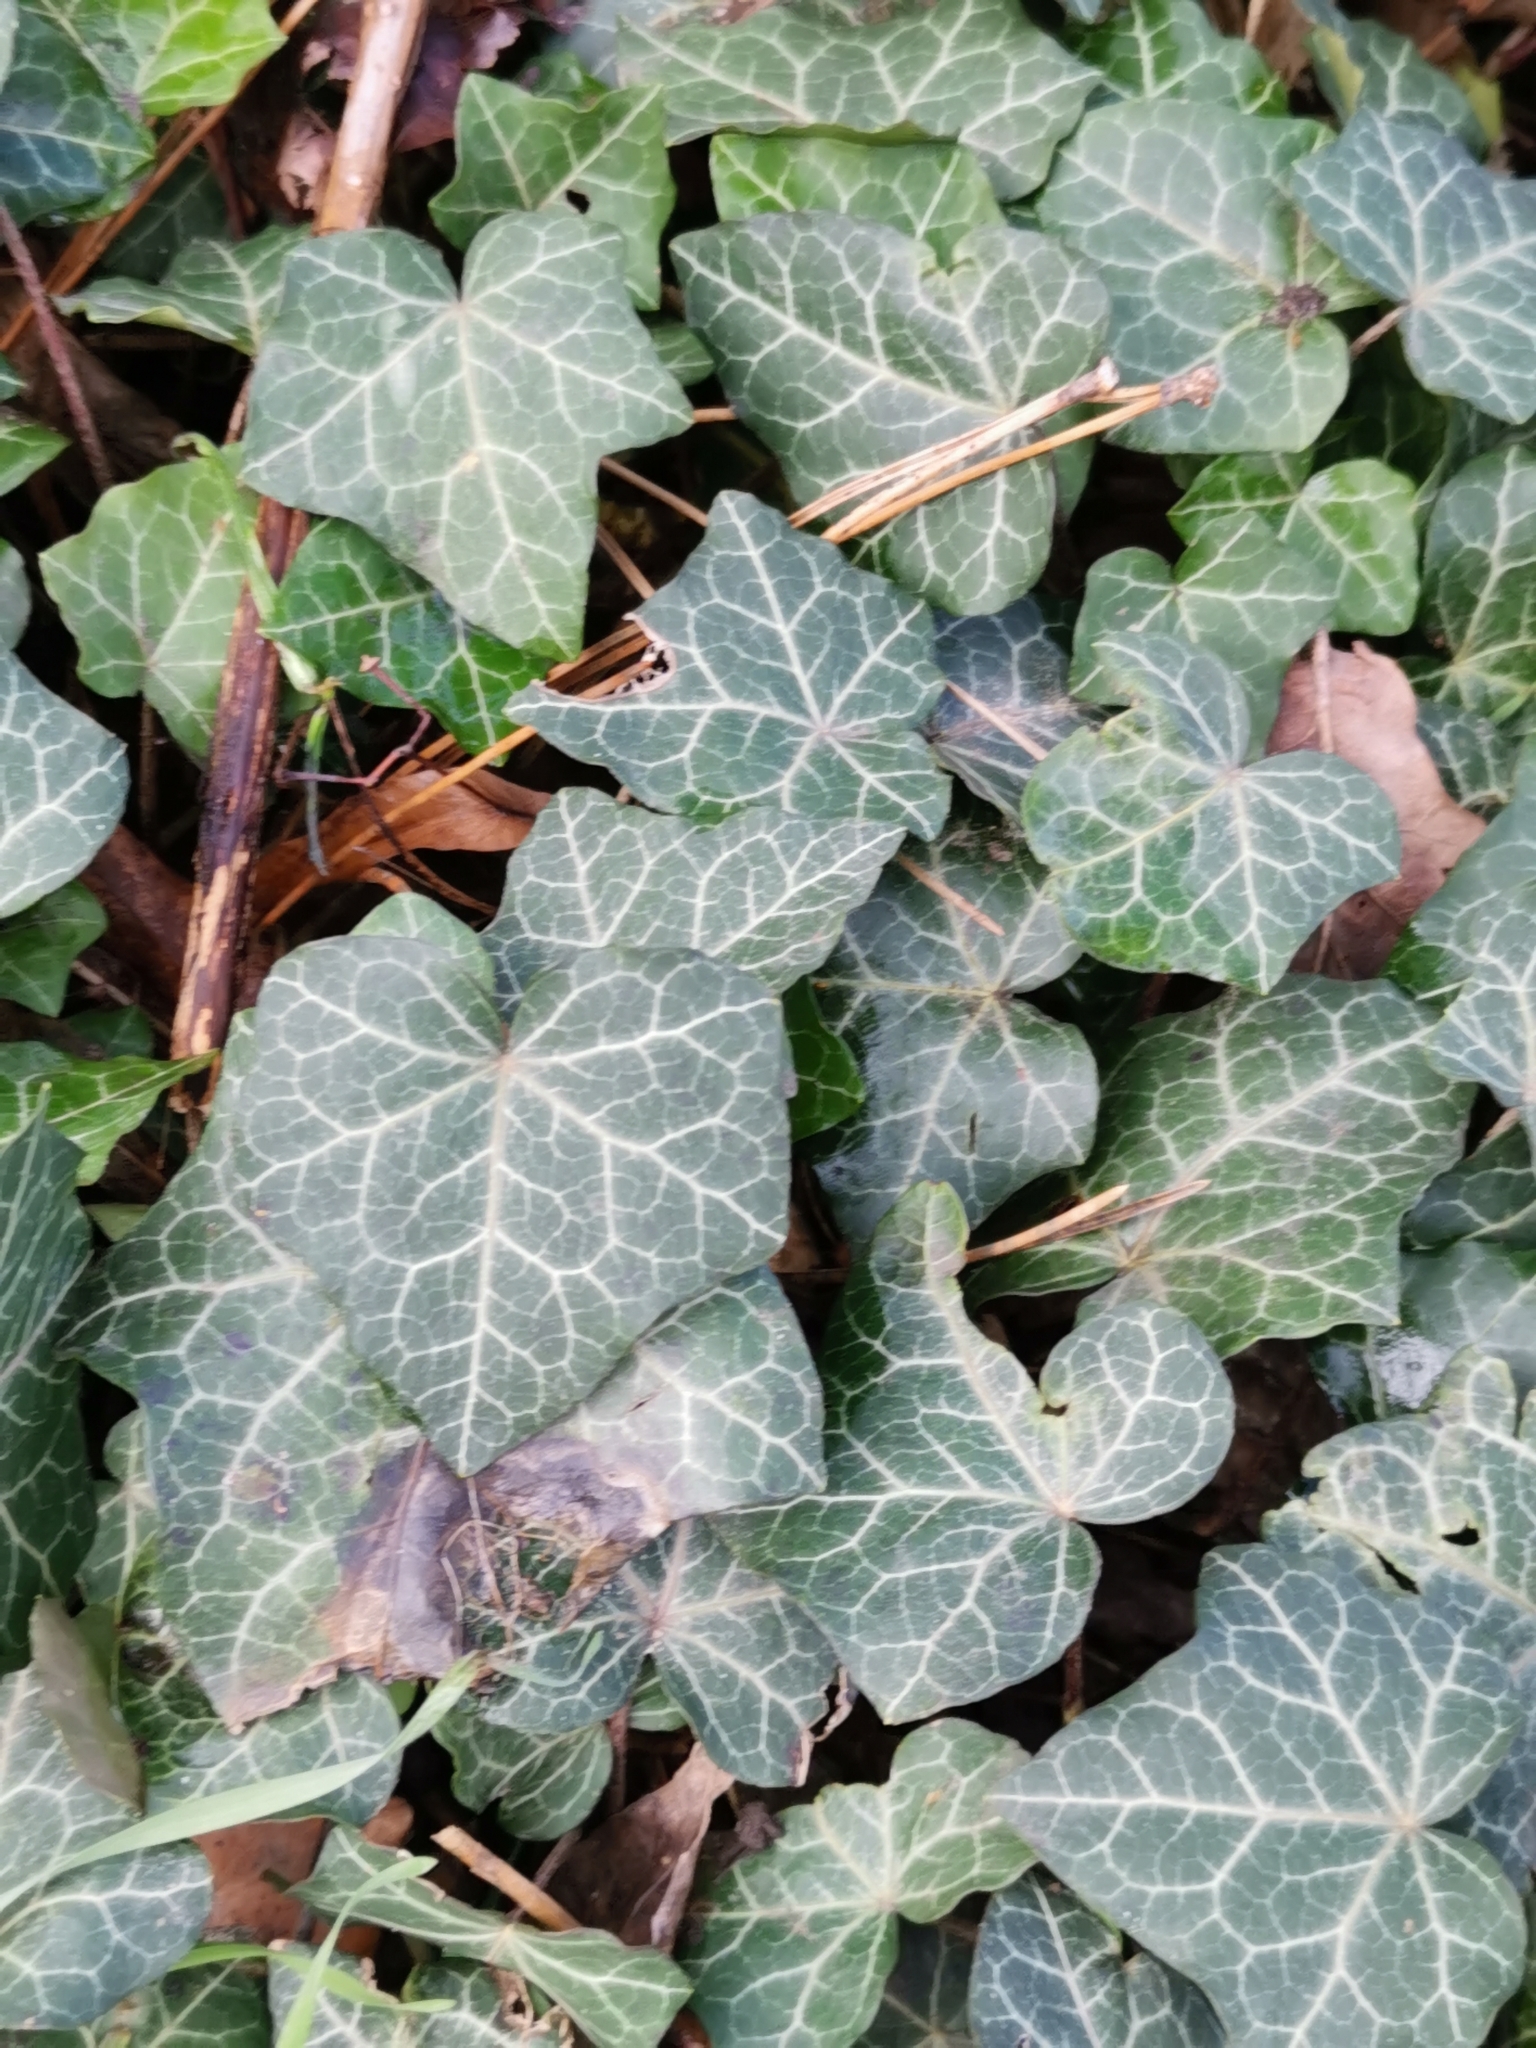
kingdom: Plantae
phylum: Tracheophyta
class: Magnoliopsida
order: Apiales
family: Araliaceae
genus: Hedera
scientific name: Hedera helix
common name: Ivy
